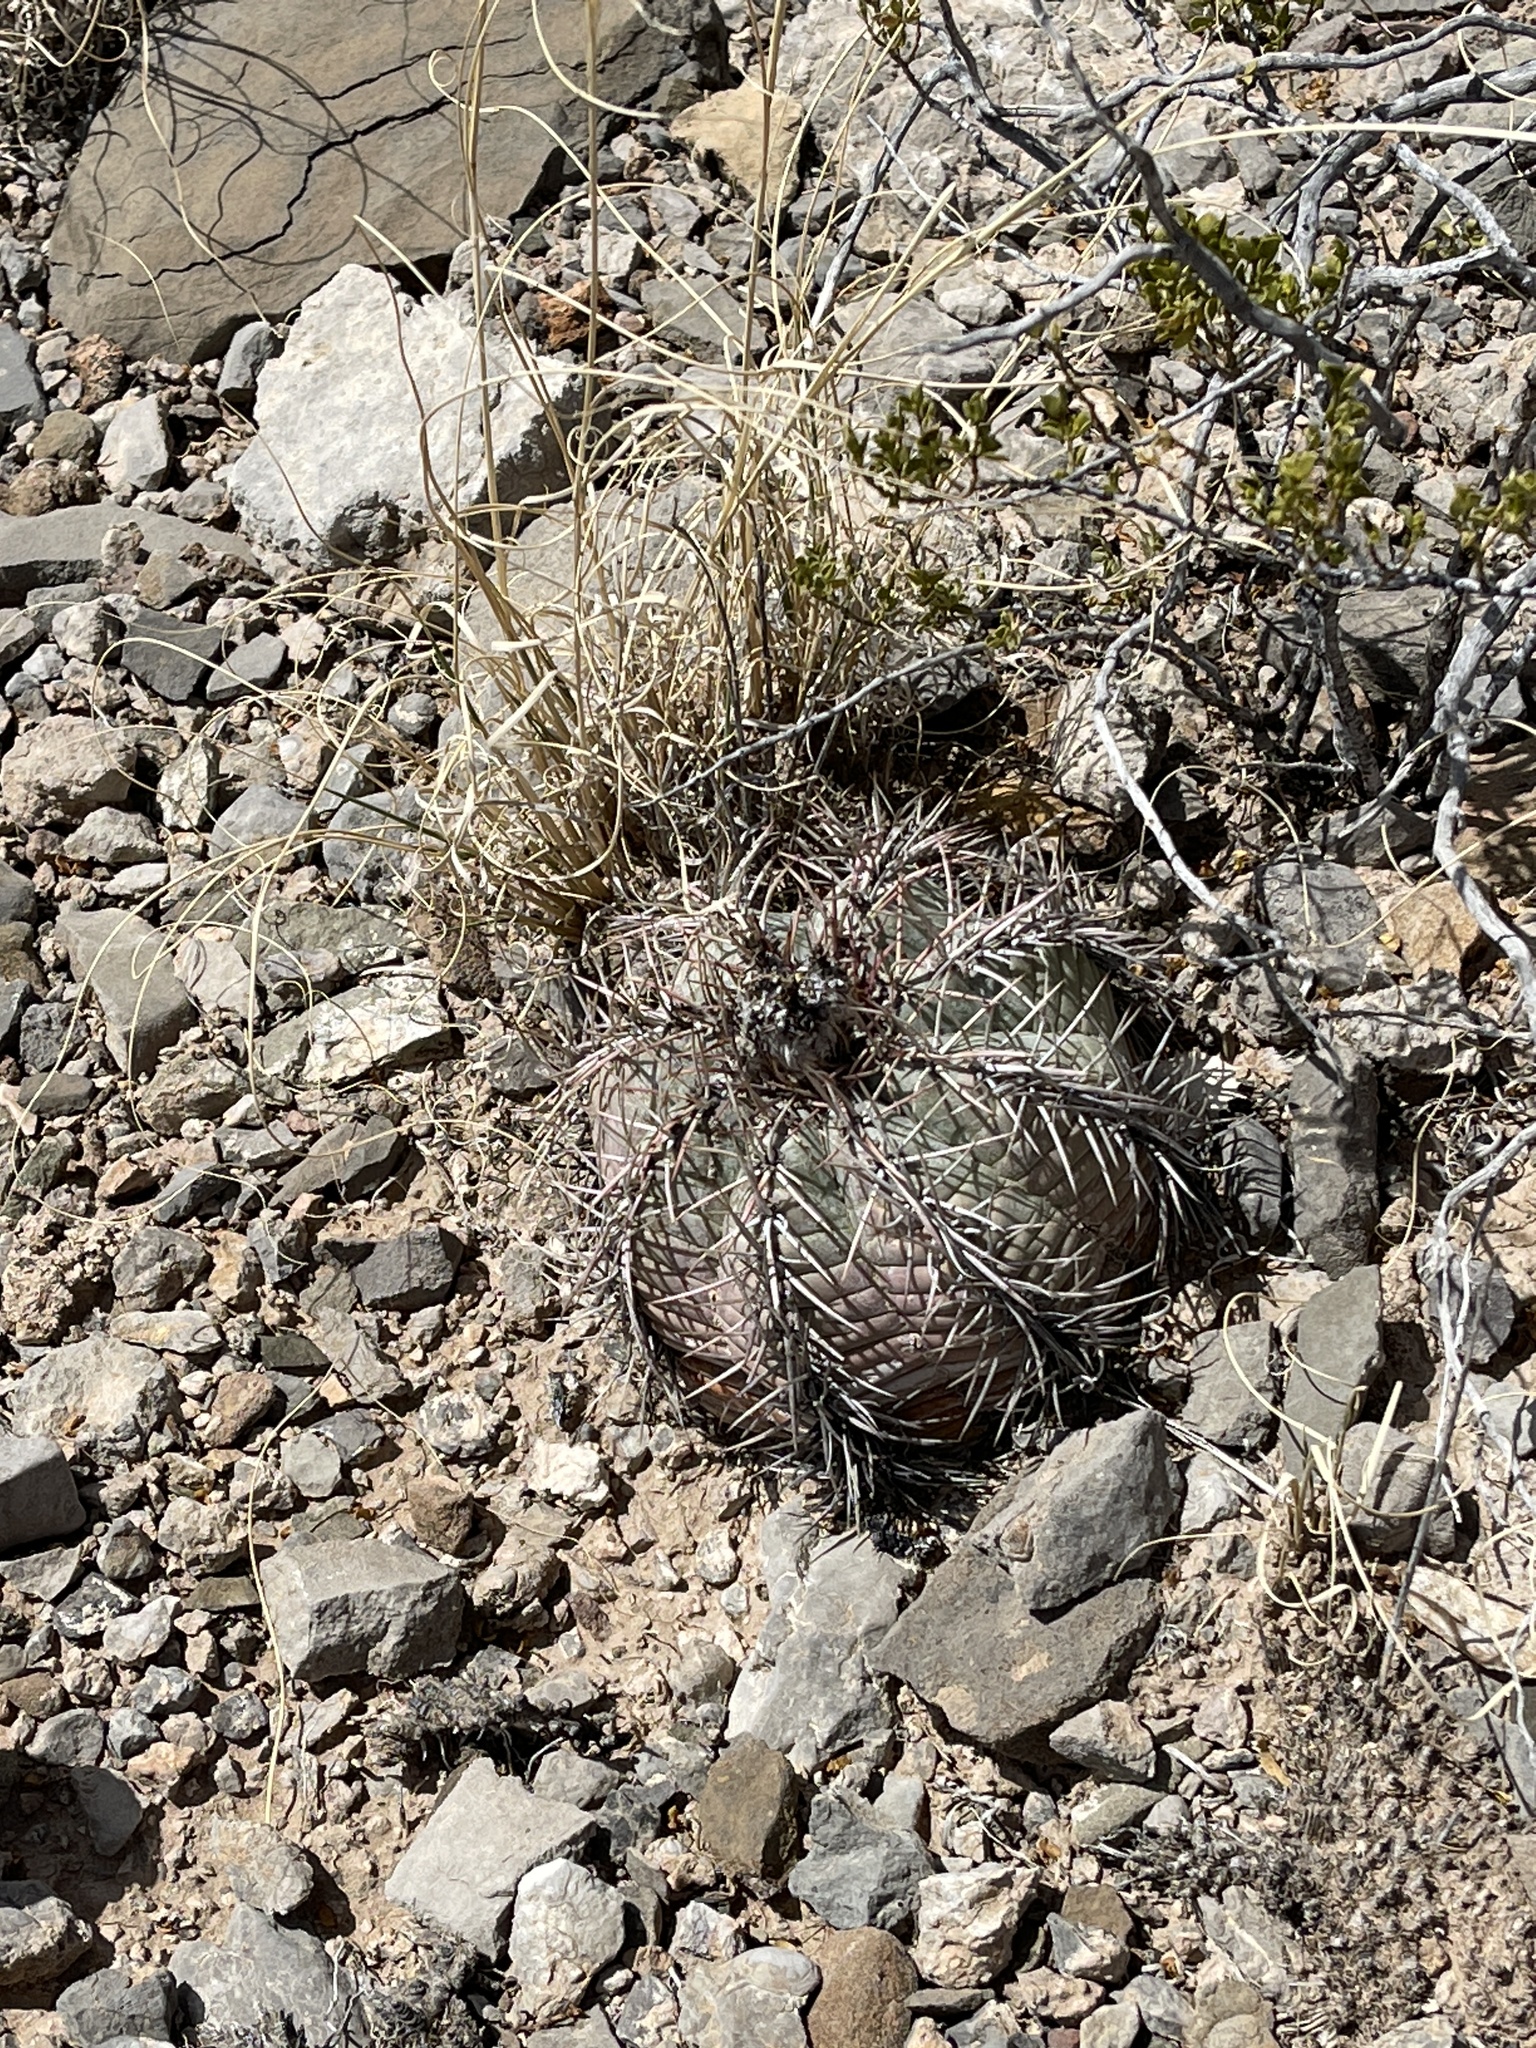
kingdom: Plantae
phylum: Tracheophyta
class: Magnoliopsida
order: Caryophyllales
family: Cactaceae
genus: Echinocactus
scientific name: Echinocactus horizonthalonius
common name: Devilshead
